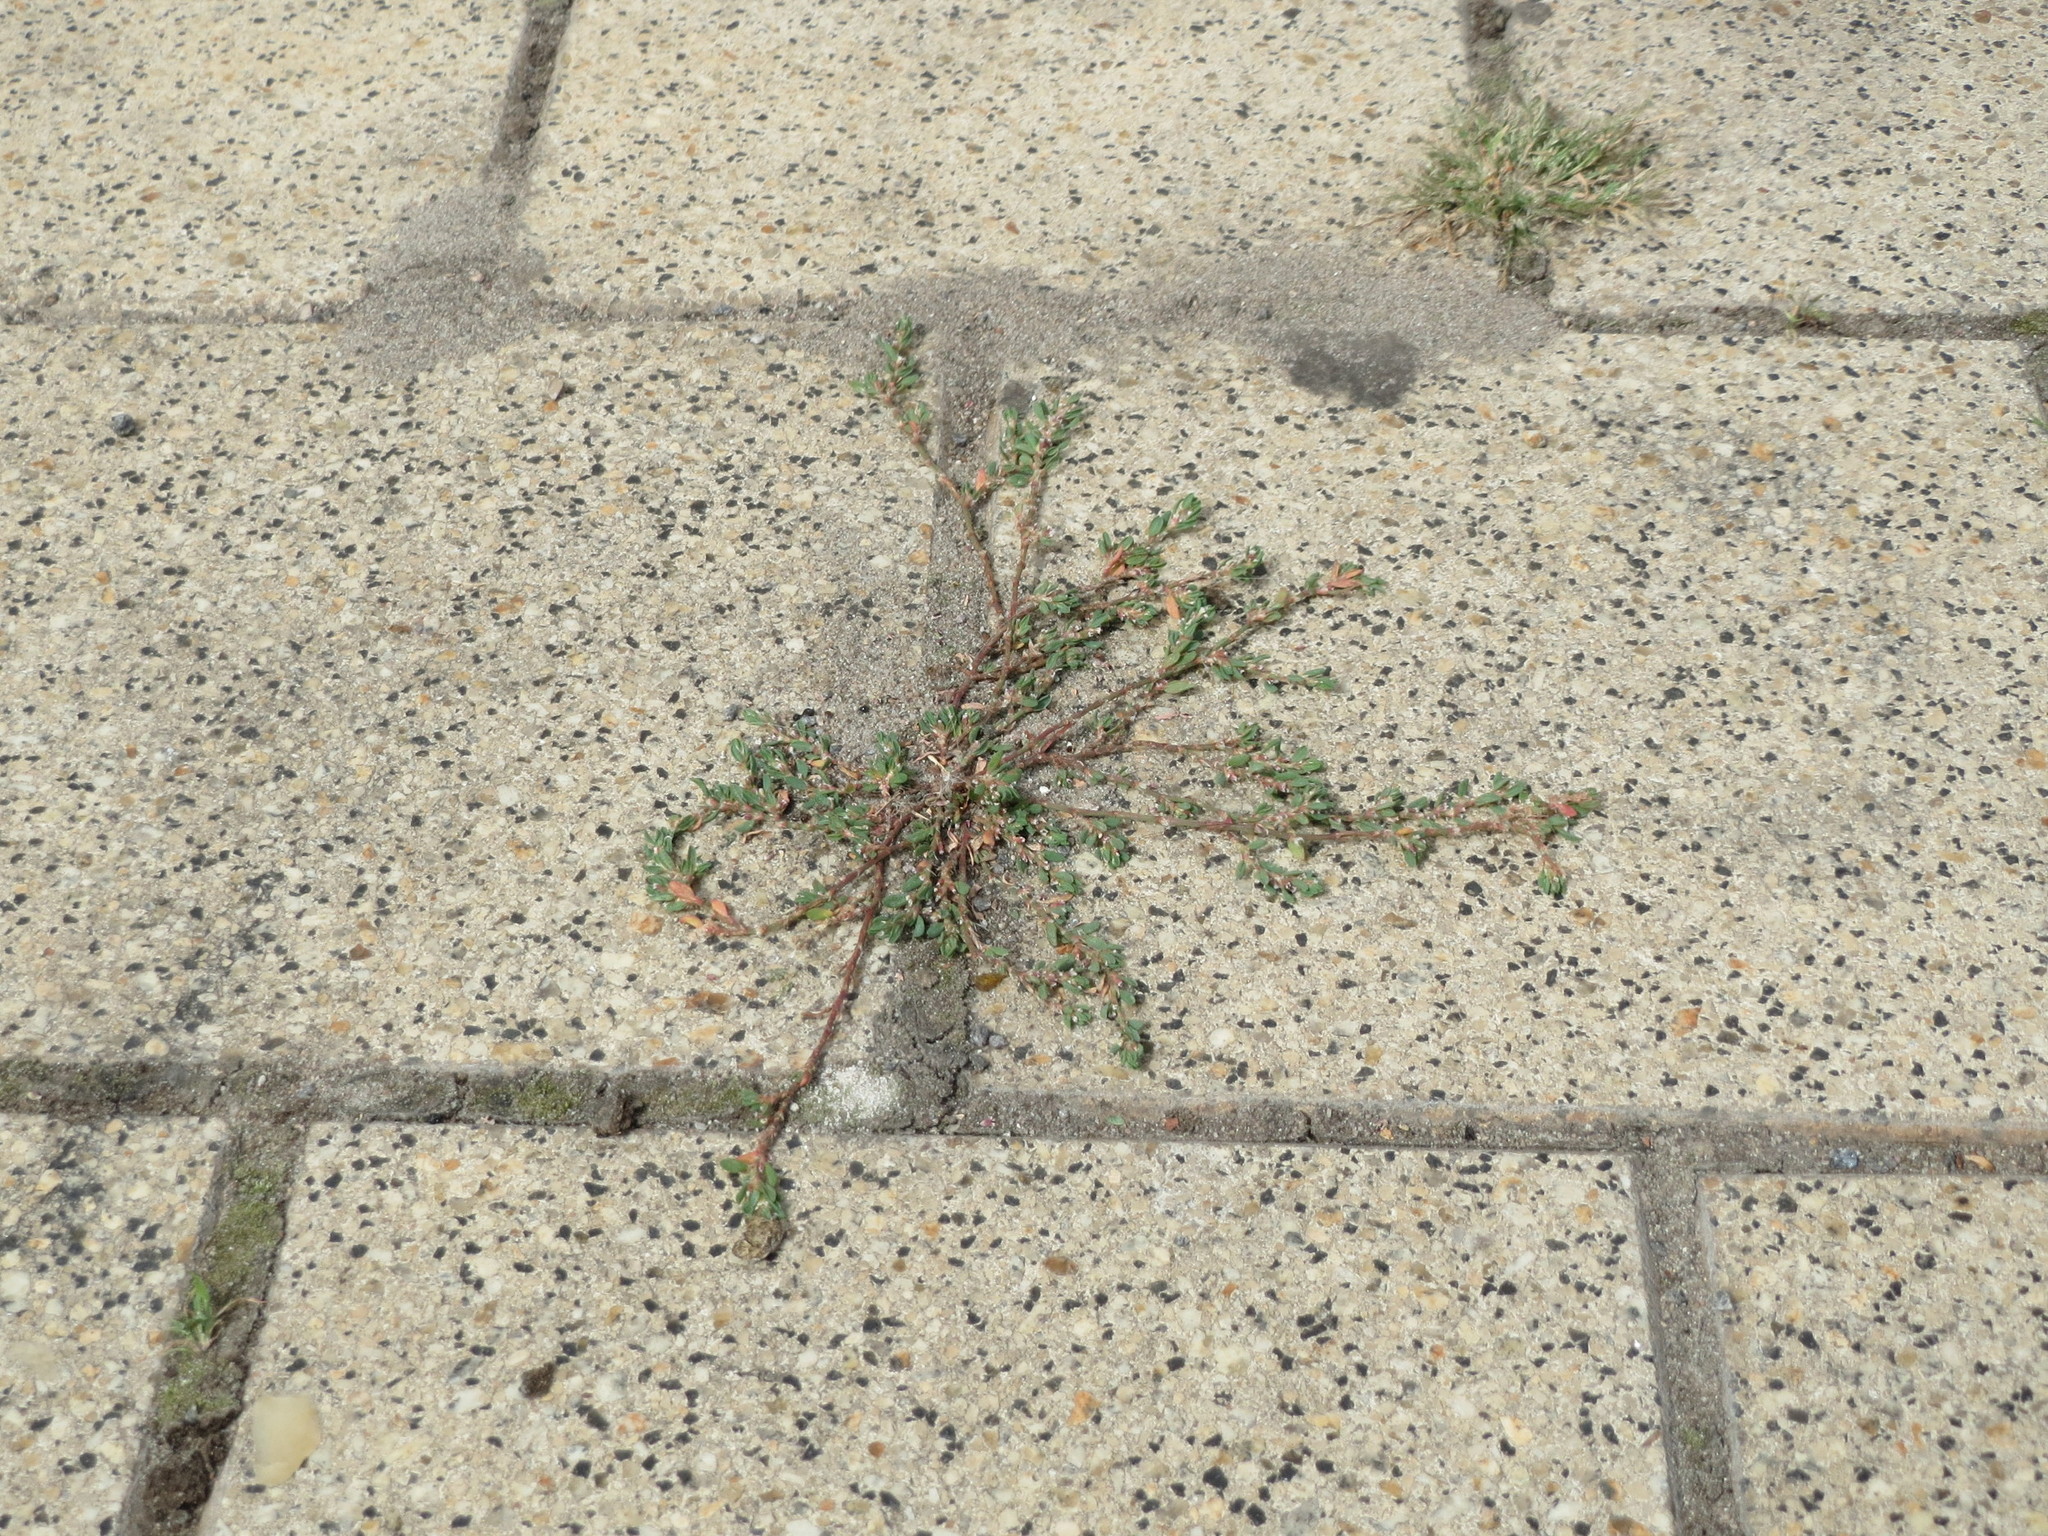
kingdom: Plantae
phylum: Tracheophyta
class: Magnoliopsida
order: Caryophyllales
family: Polygonaceae
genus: Polygonum
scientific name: Polygonum aviculare
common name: Prostrate knotweed
